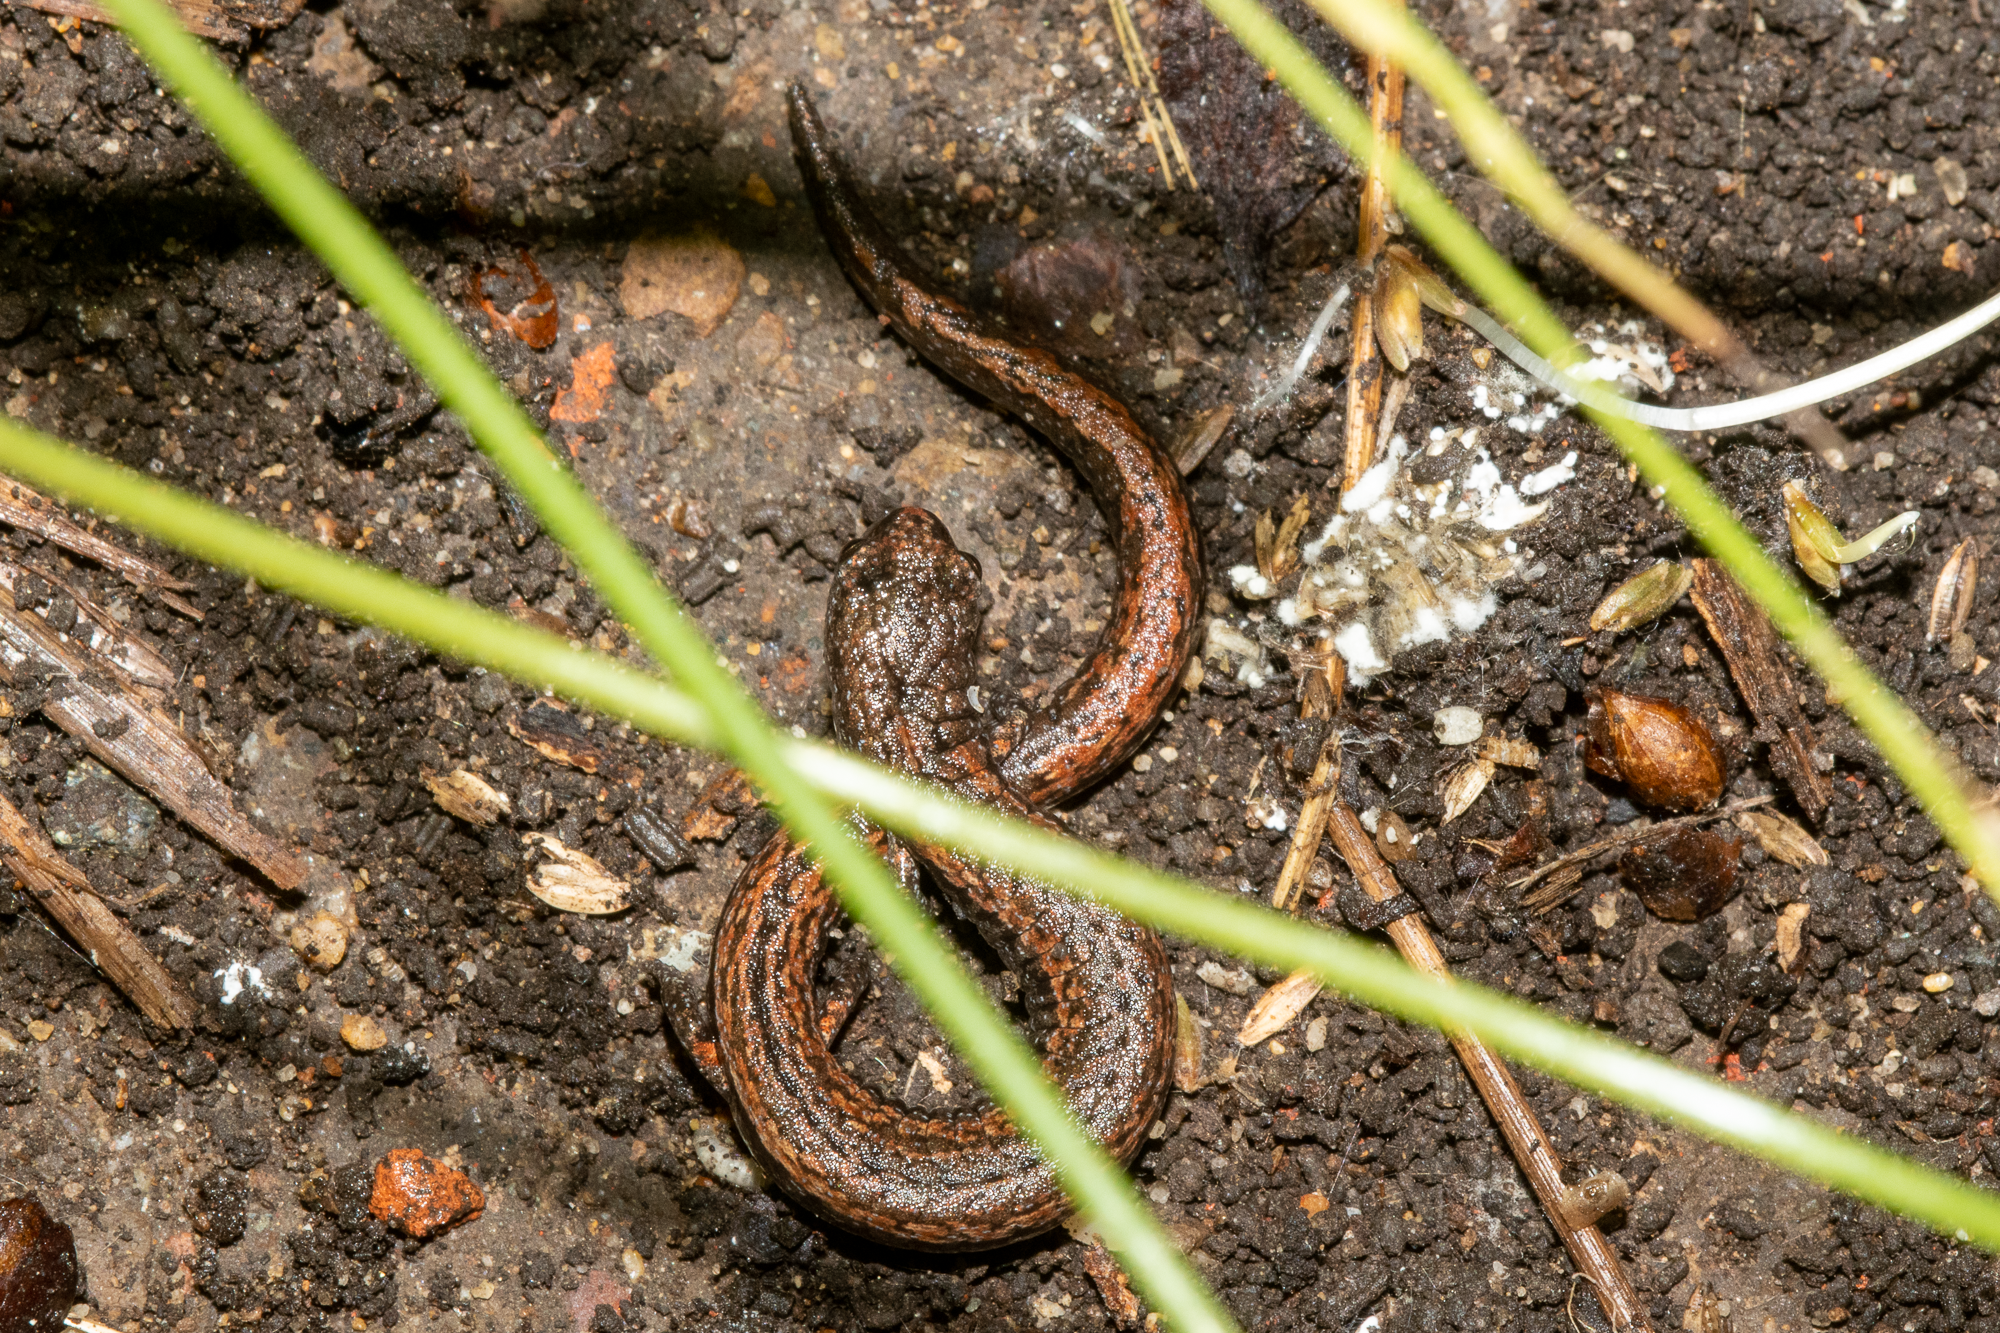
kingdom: Animalia
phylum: Chordata
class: Amphibia
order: Caudata
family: Plethodontidae
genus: Batrachoseps
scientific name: Batrachoseps attenuatus
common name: California slender salamander
